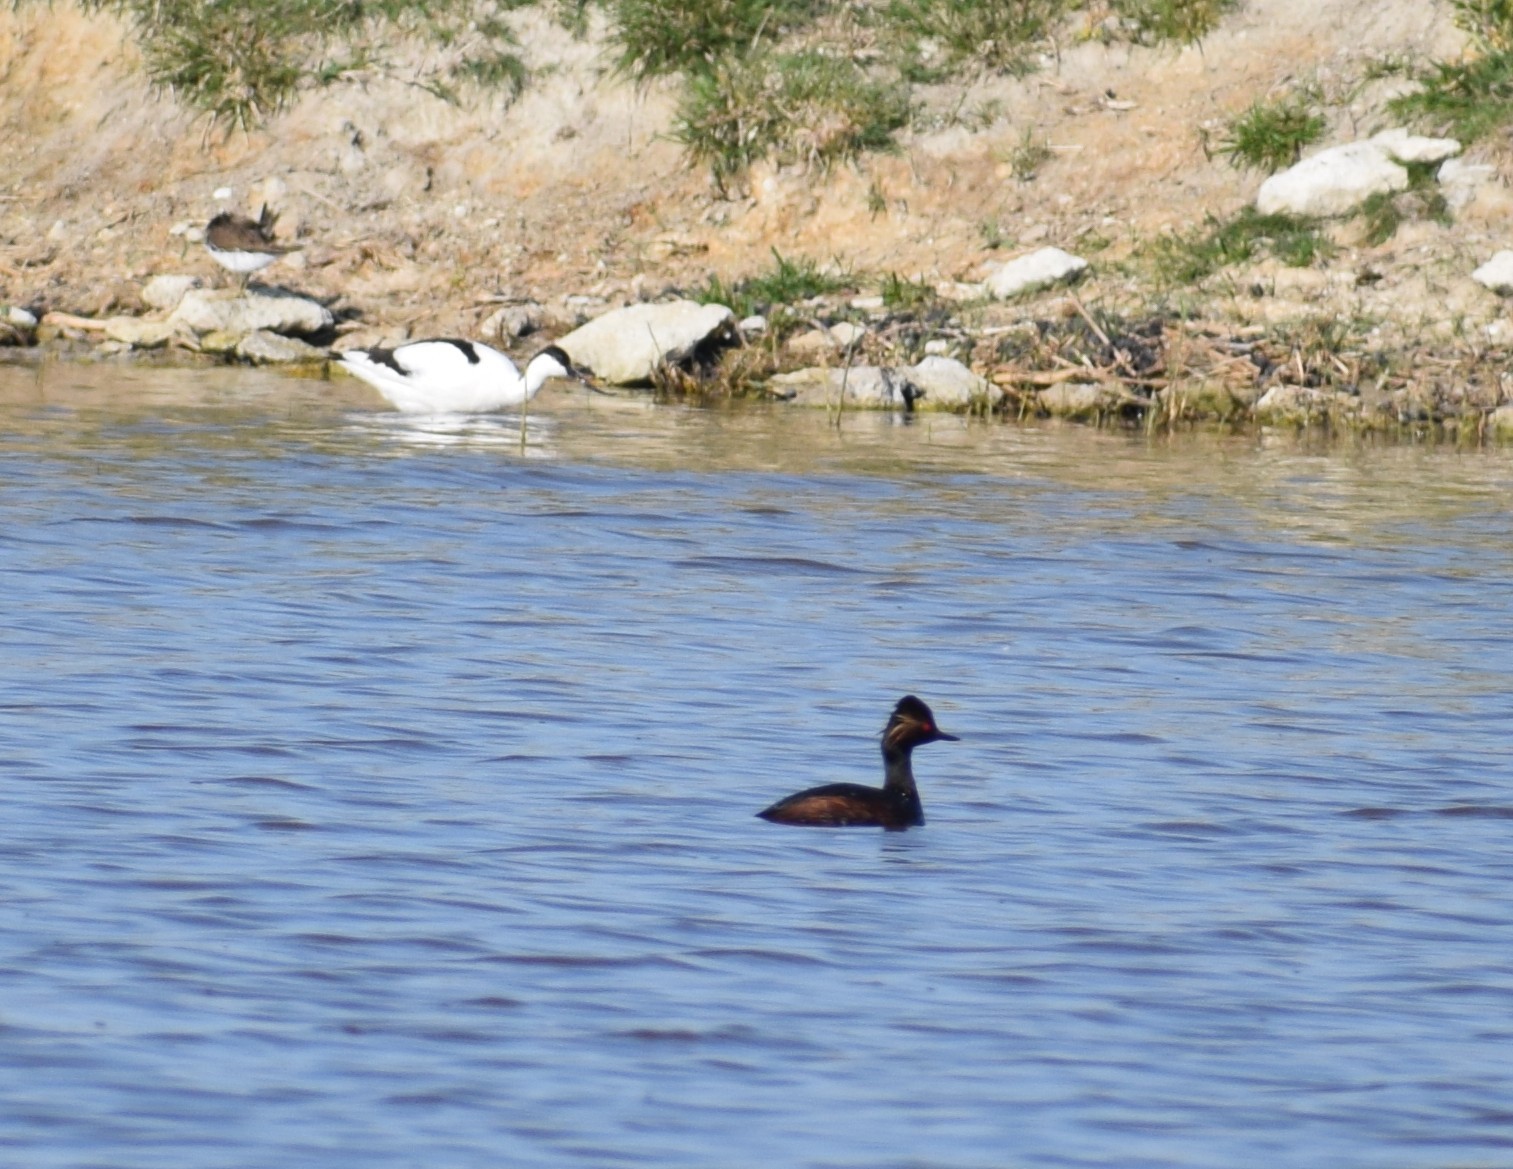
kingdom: Animalia
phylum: Chordata
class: Aves
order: Podicipediformes
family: Podicipedidae
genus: Podiceps
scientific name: Podiceps nigricollis
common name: Black-necked grebe
